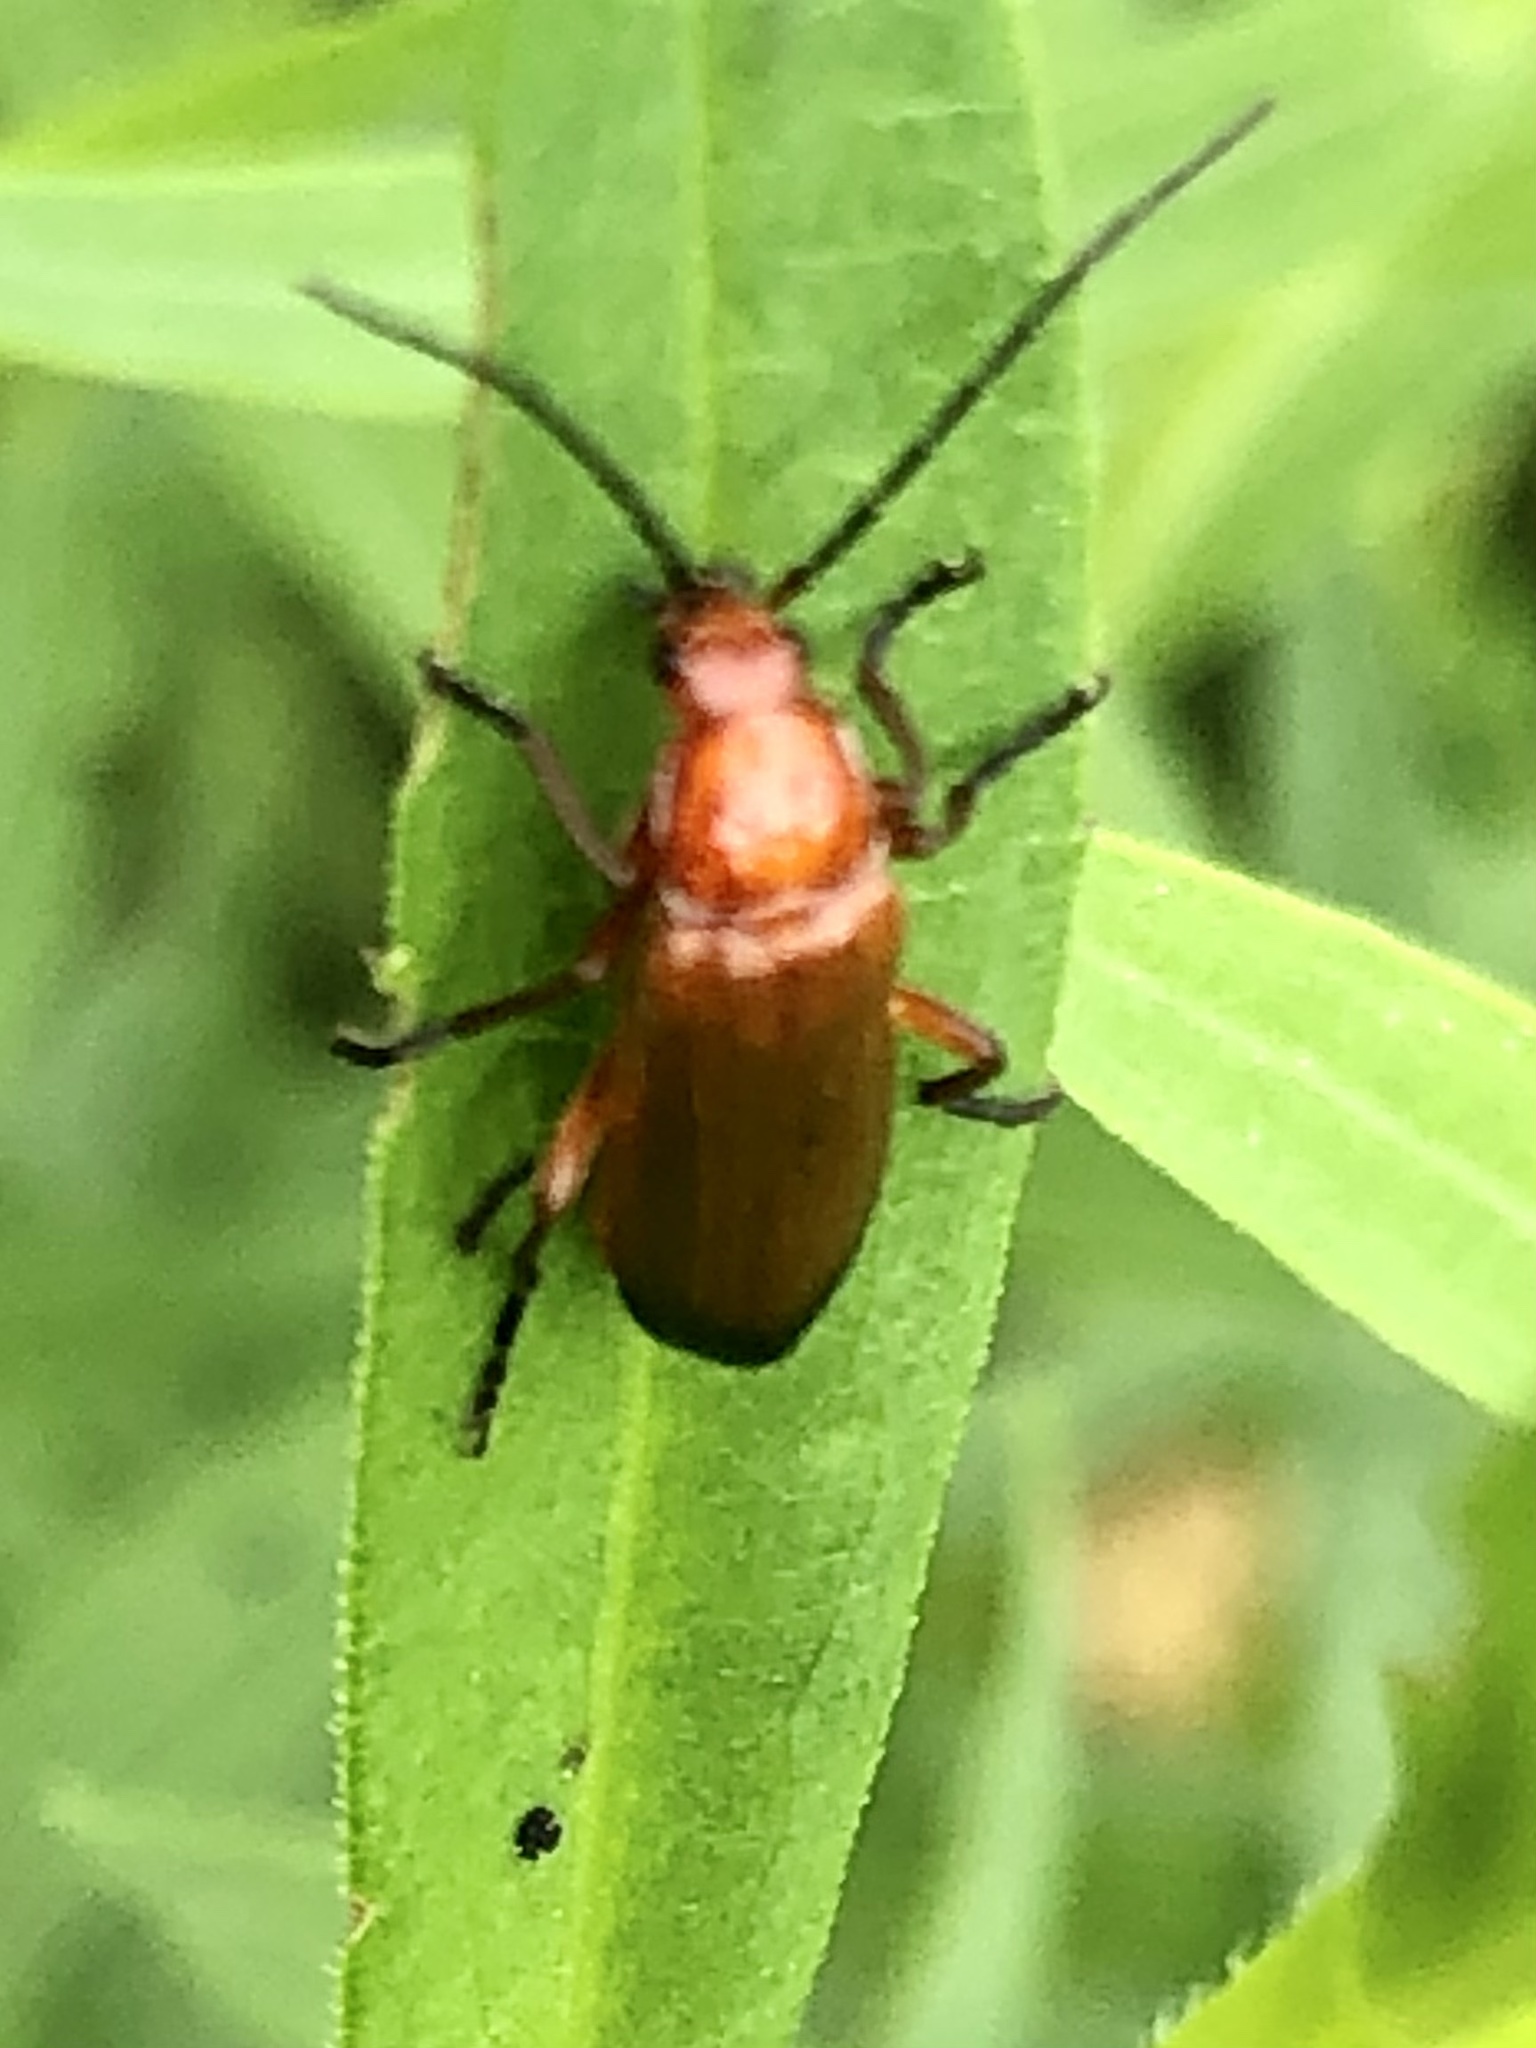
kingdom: Animalia
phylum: Arthropoda
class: Insecta
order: Coleoptera
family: Cantharidae
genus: Rhagonycha
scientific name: Rhagonycha fulva
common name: Common red soldier beetle
